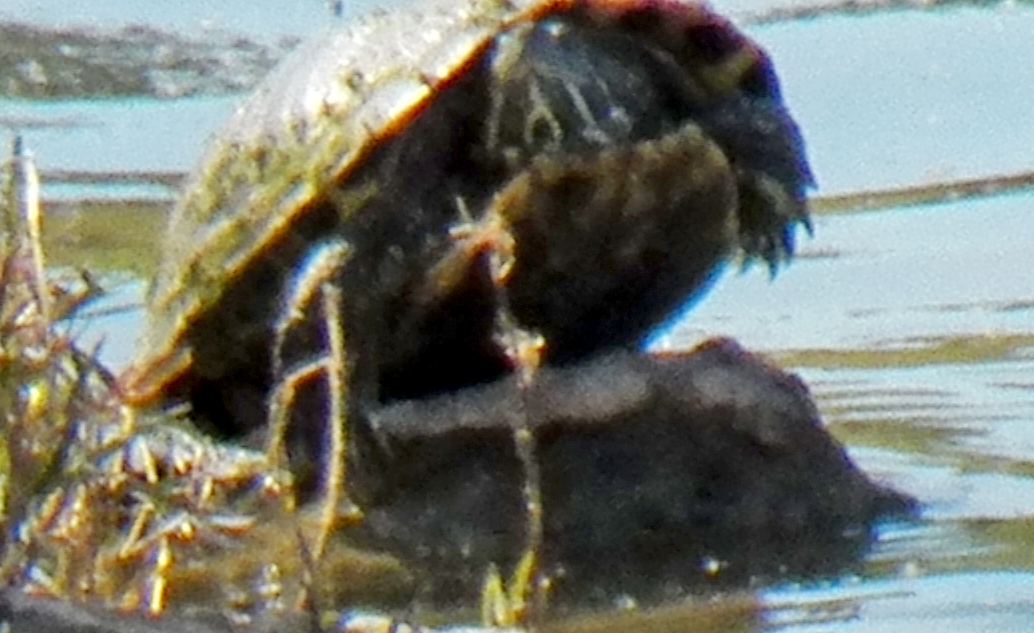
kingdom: Animalia
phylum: Chordata
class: Testudines
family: Emydidae
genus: Trachemys
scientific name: Trachemys scripta
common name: Slider
